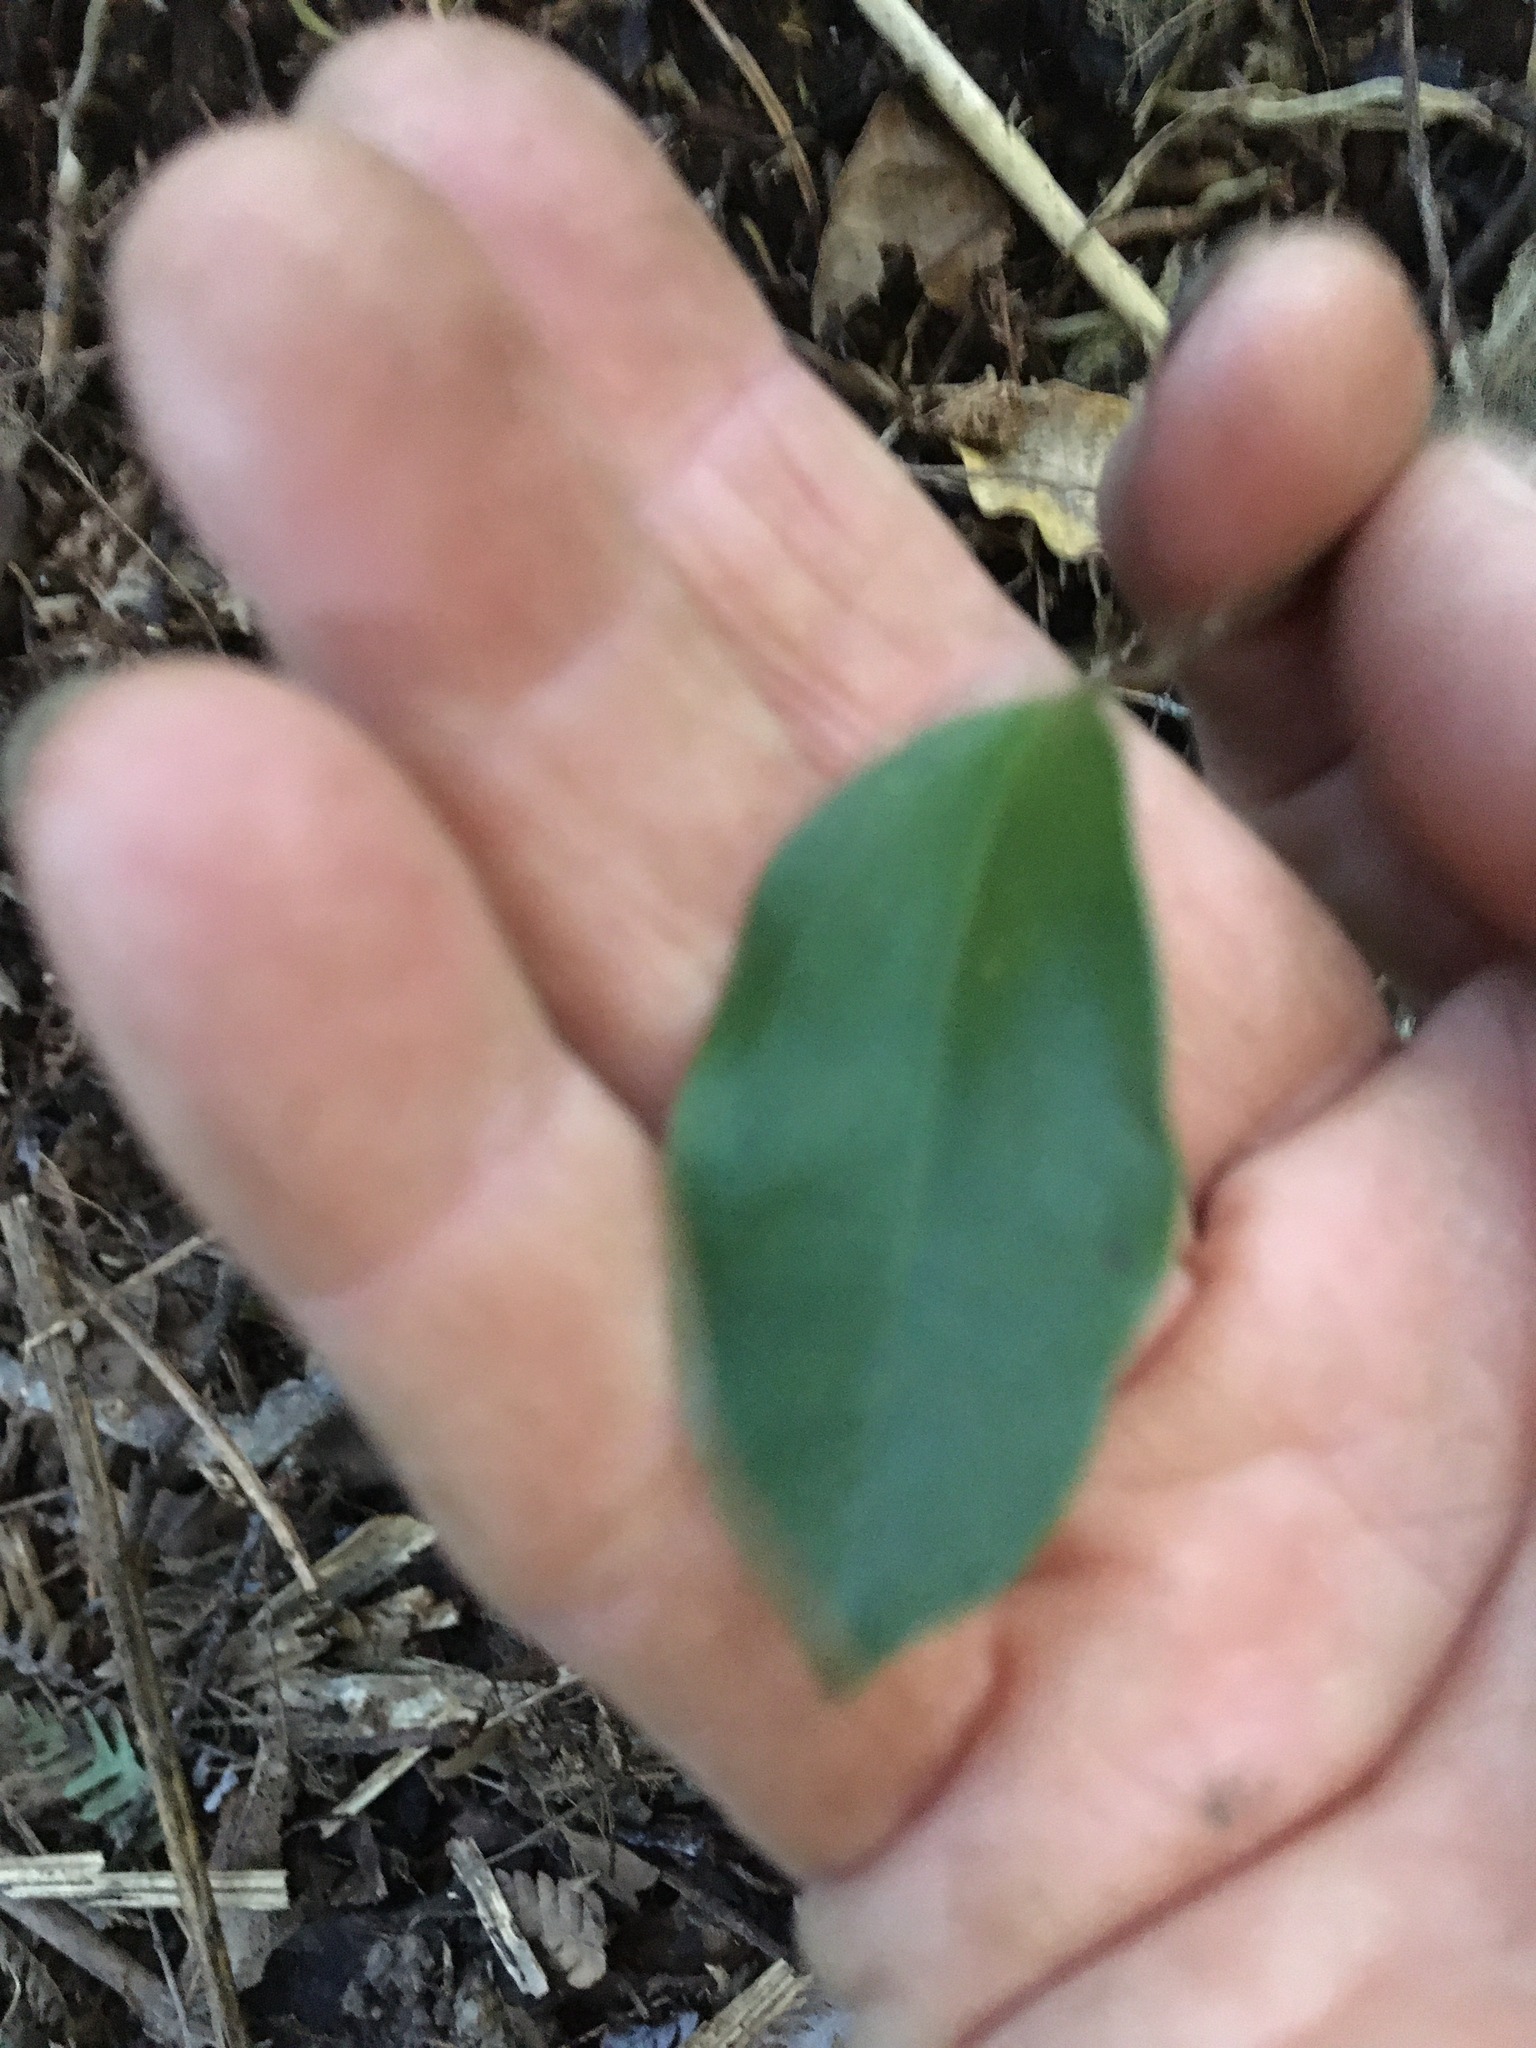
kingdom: Plantae
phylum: Tracheophyta
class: Liliopsida
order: Liliales
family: Ripogonaceae
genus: Ripogonum
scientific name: Ripogonum scandens
